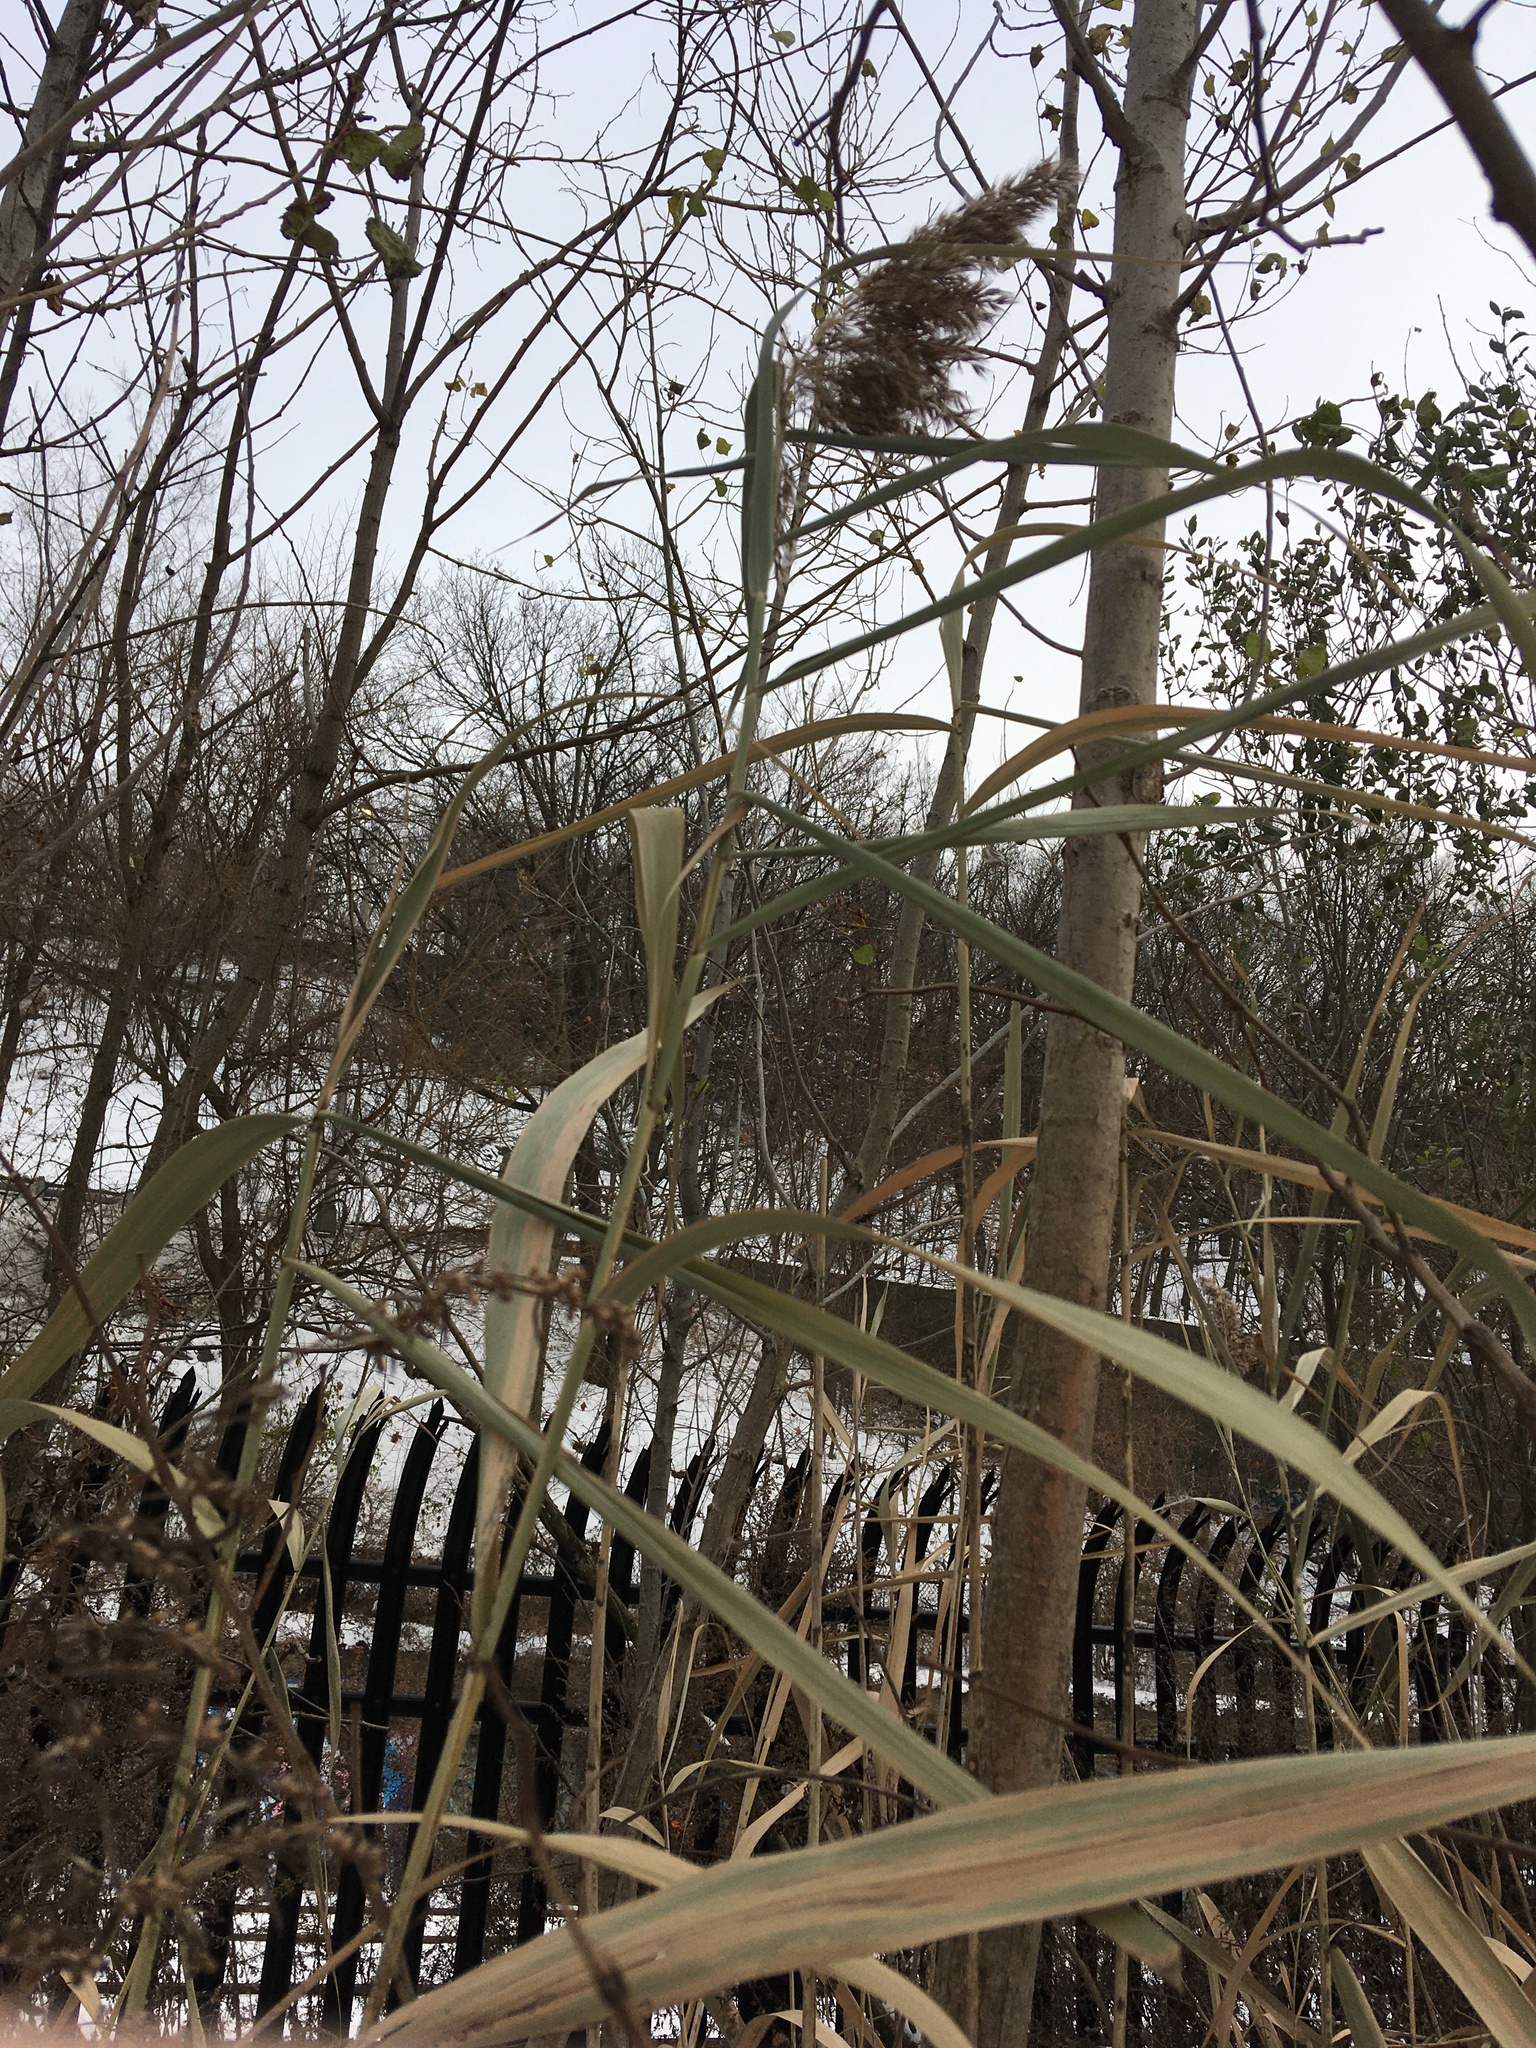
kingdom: Plantae
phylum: Tracheophyta
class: Liliopsida
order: Poales
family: Poaceae
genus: Phragmites
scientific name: Phragmites australis
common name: Common reed
